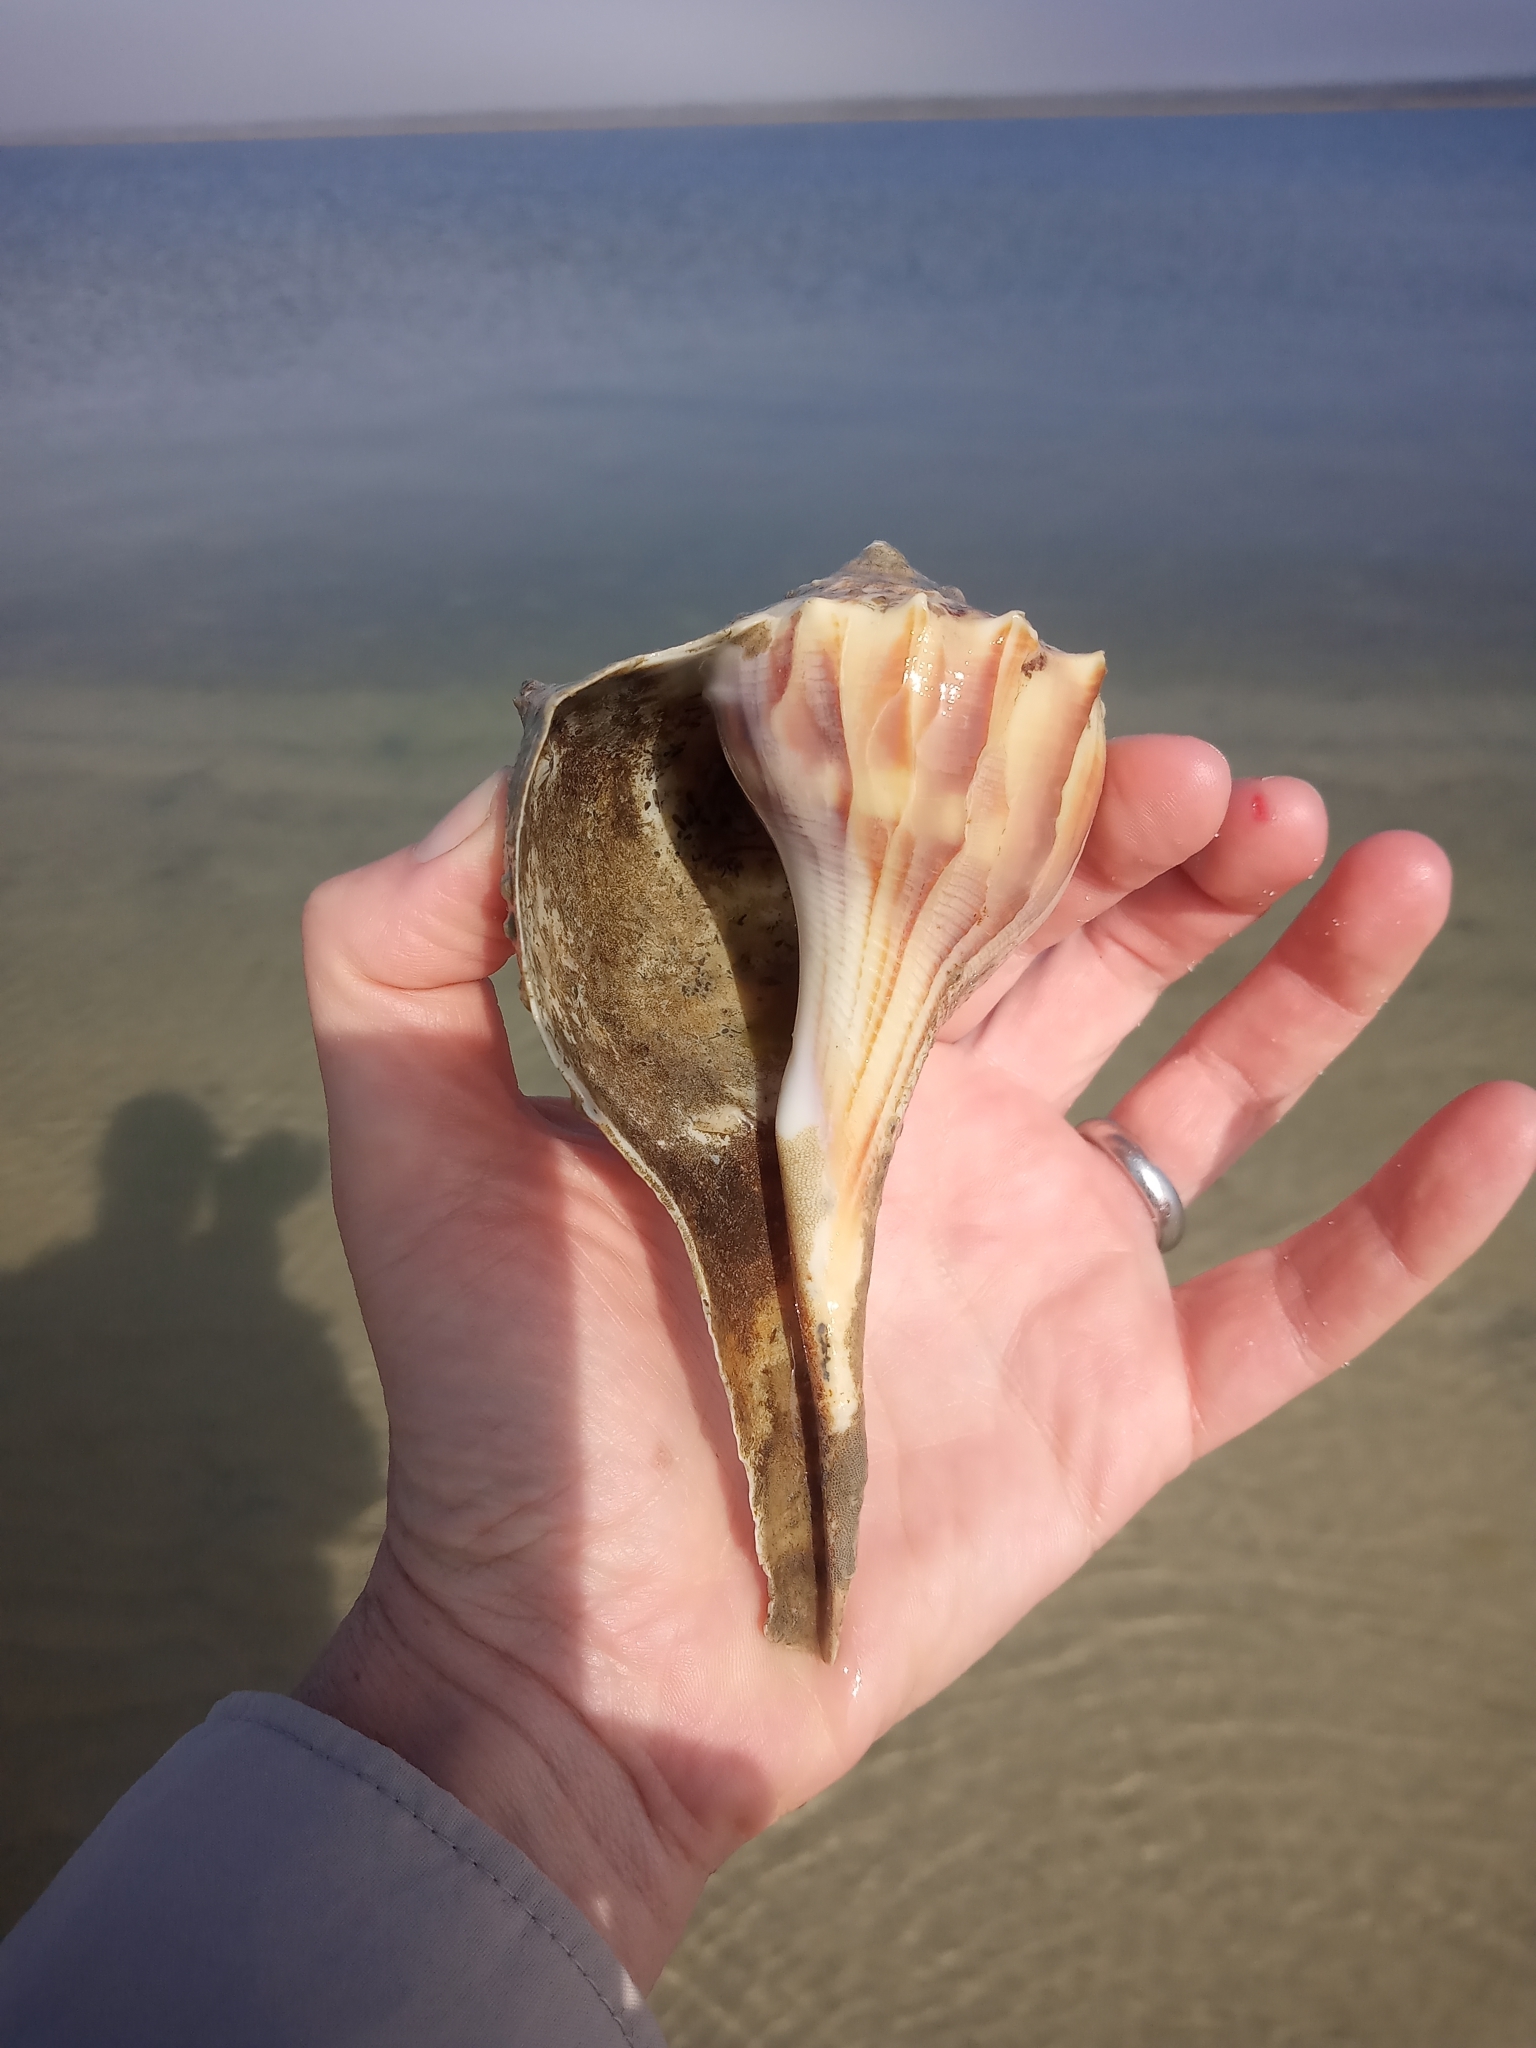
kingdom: Animalia
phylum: Mollusca
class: Gastropoda
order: Neogastropoda
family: Busyconidae
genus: Sinistrofulgur
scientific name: Sinistrofulgur sinistrum
